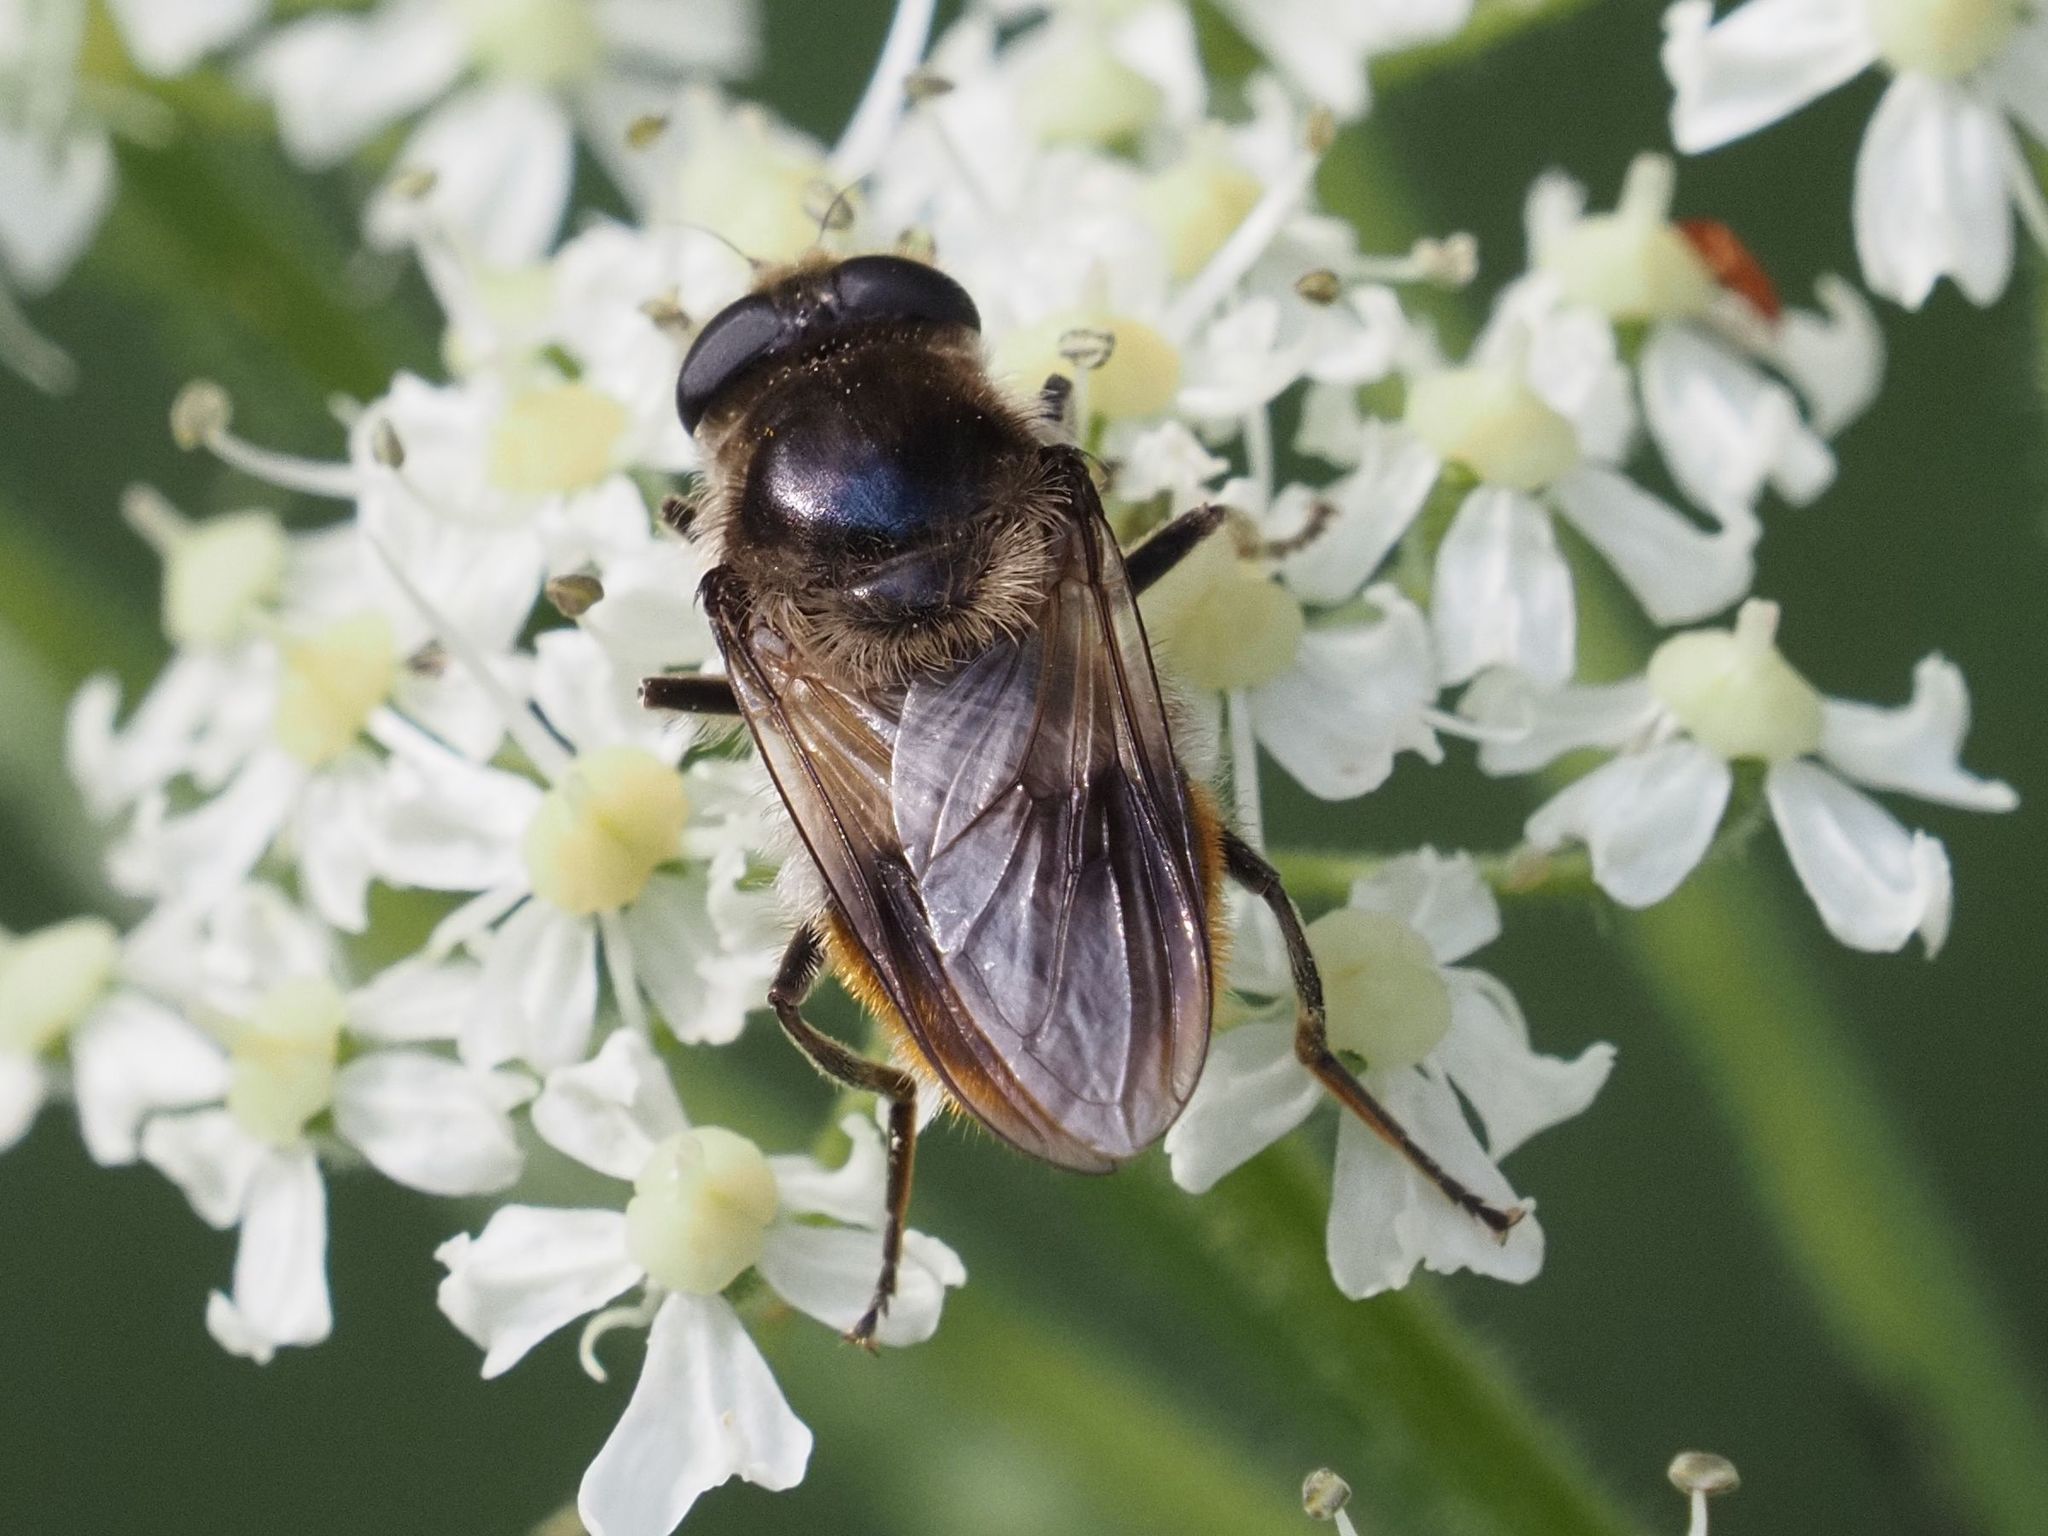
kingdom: Animalia
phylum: Arthropoda
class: Insecta
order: Diptera
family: Syrphidae
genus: Cheilosia
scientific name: Cheilosia illustrata
